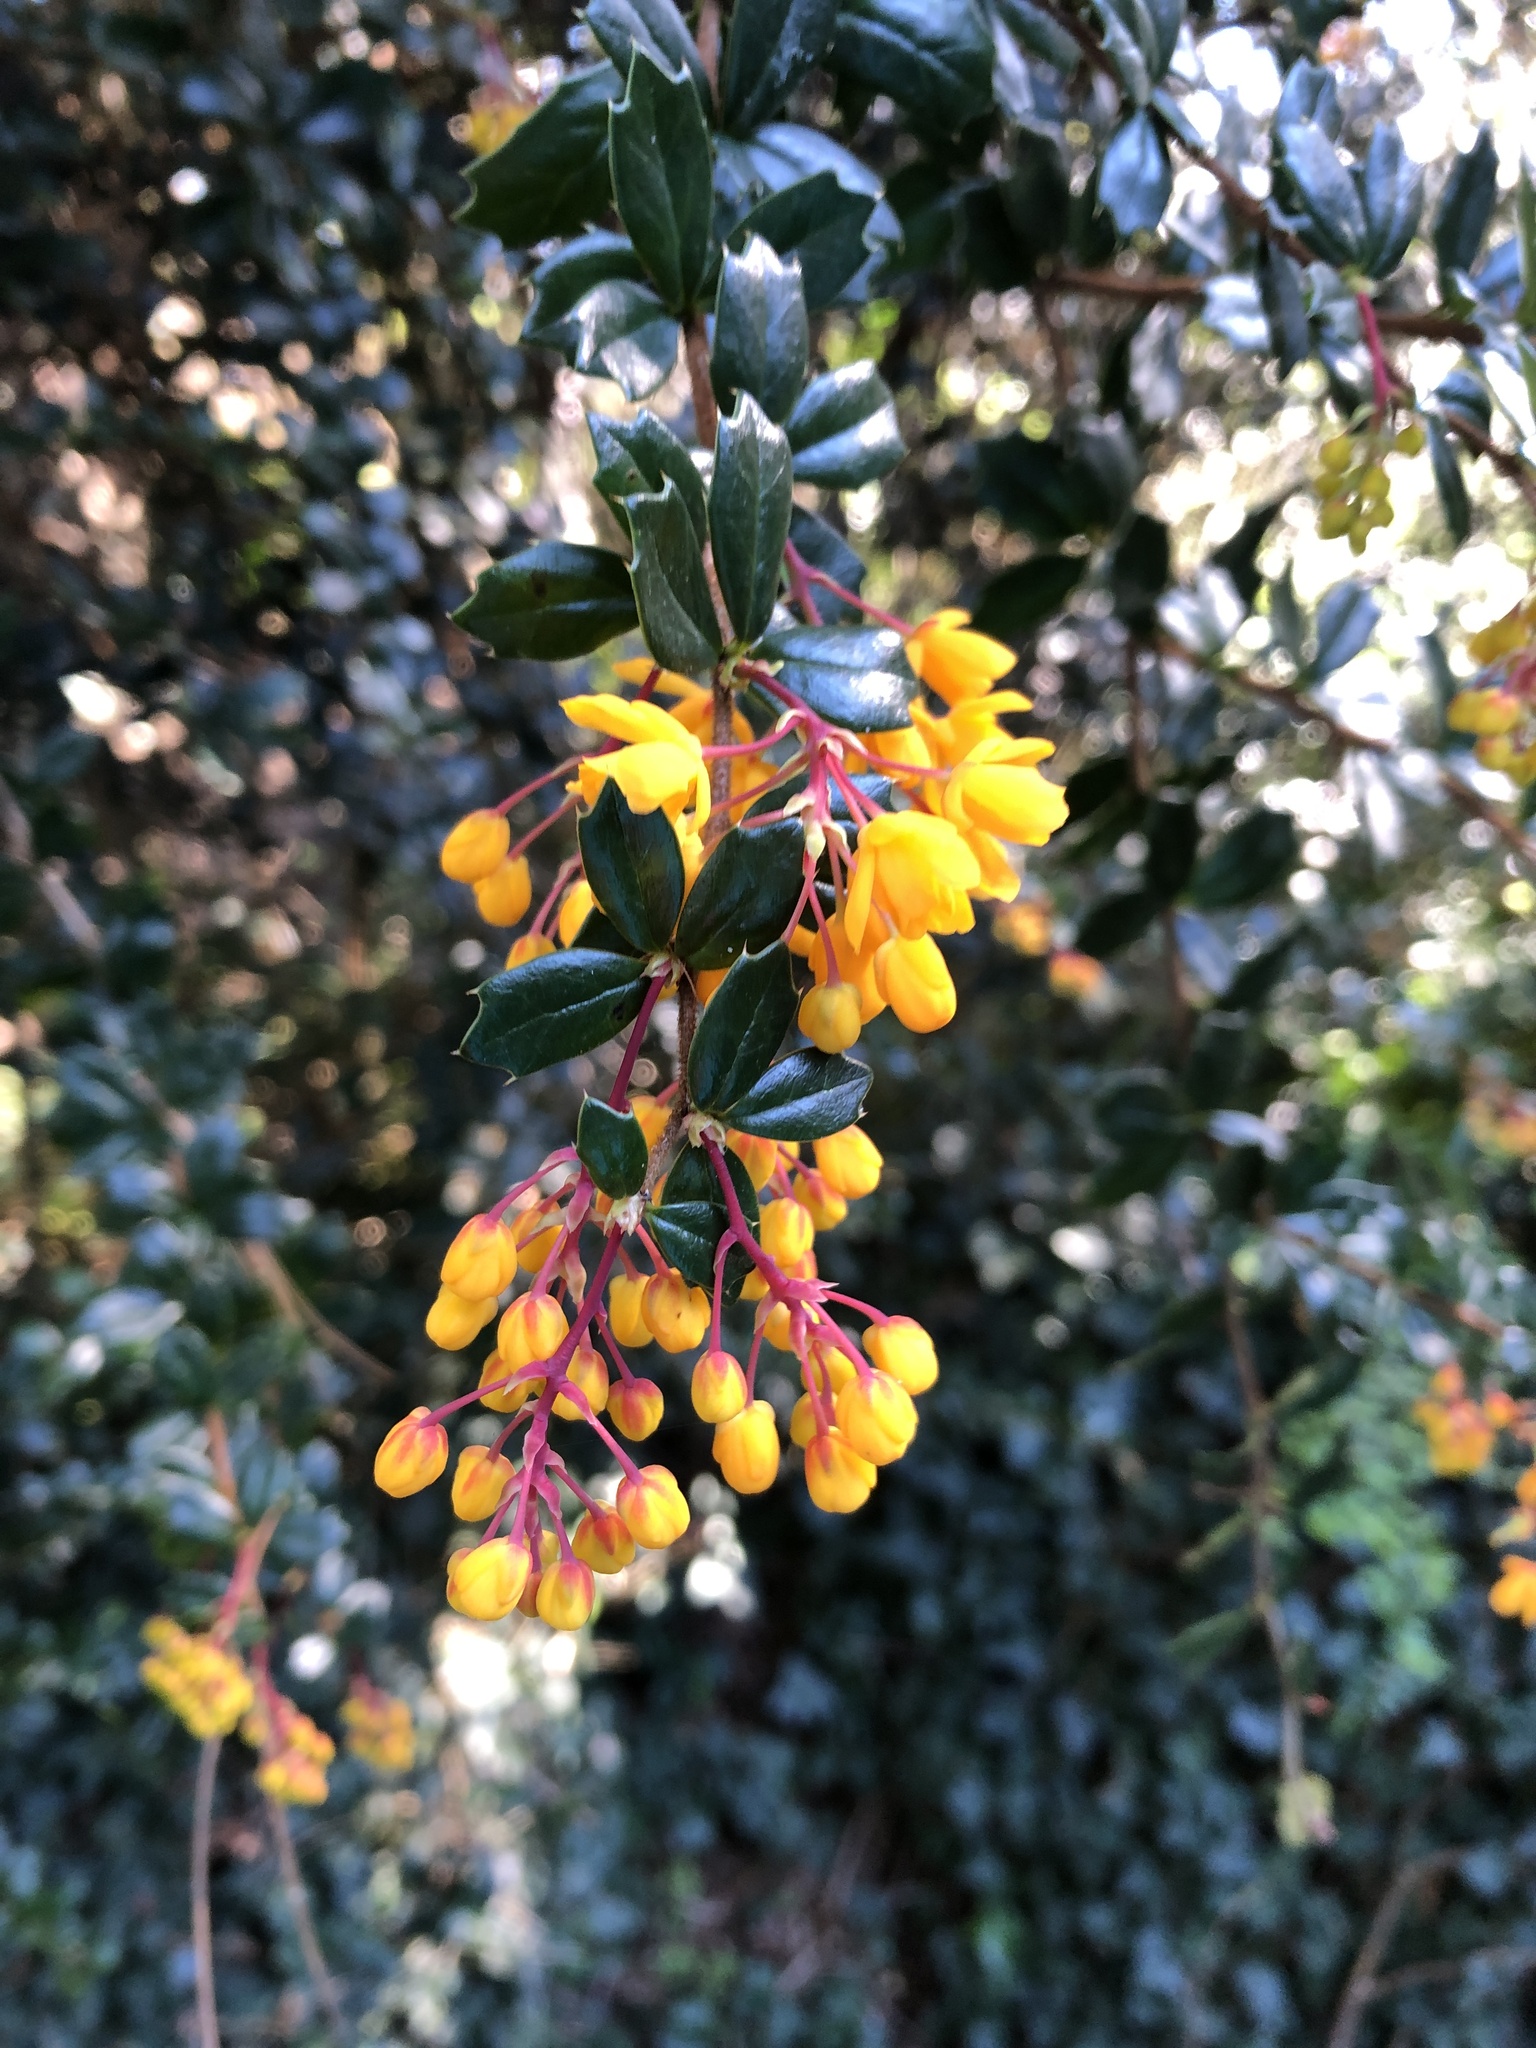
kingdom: Plantae
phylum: Tracheophyta
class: Magnoliopsida
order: Ranunculales
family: Berberidaceae
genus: Berberis
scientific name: Berberis darwinii
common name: Darwin's barberry
